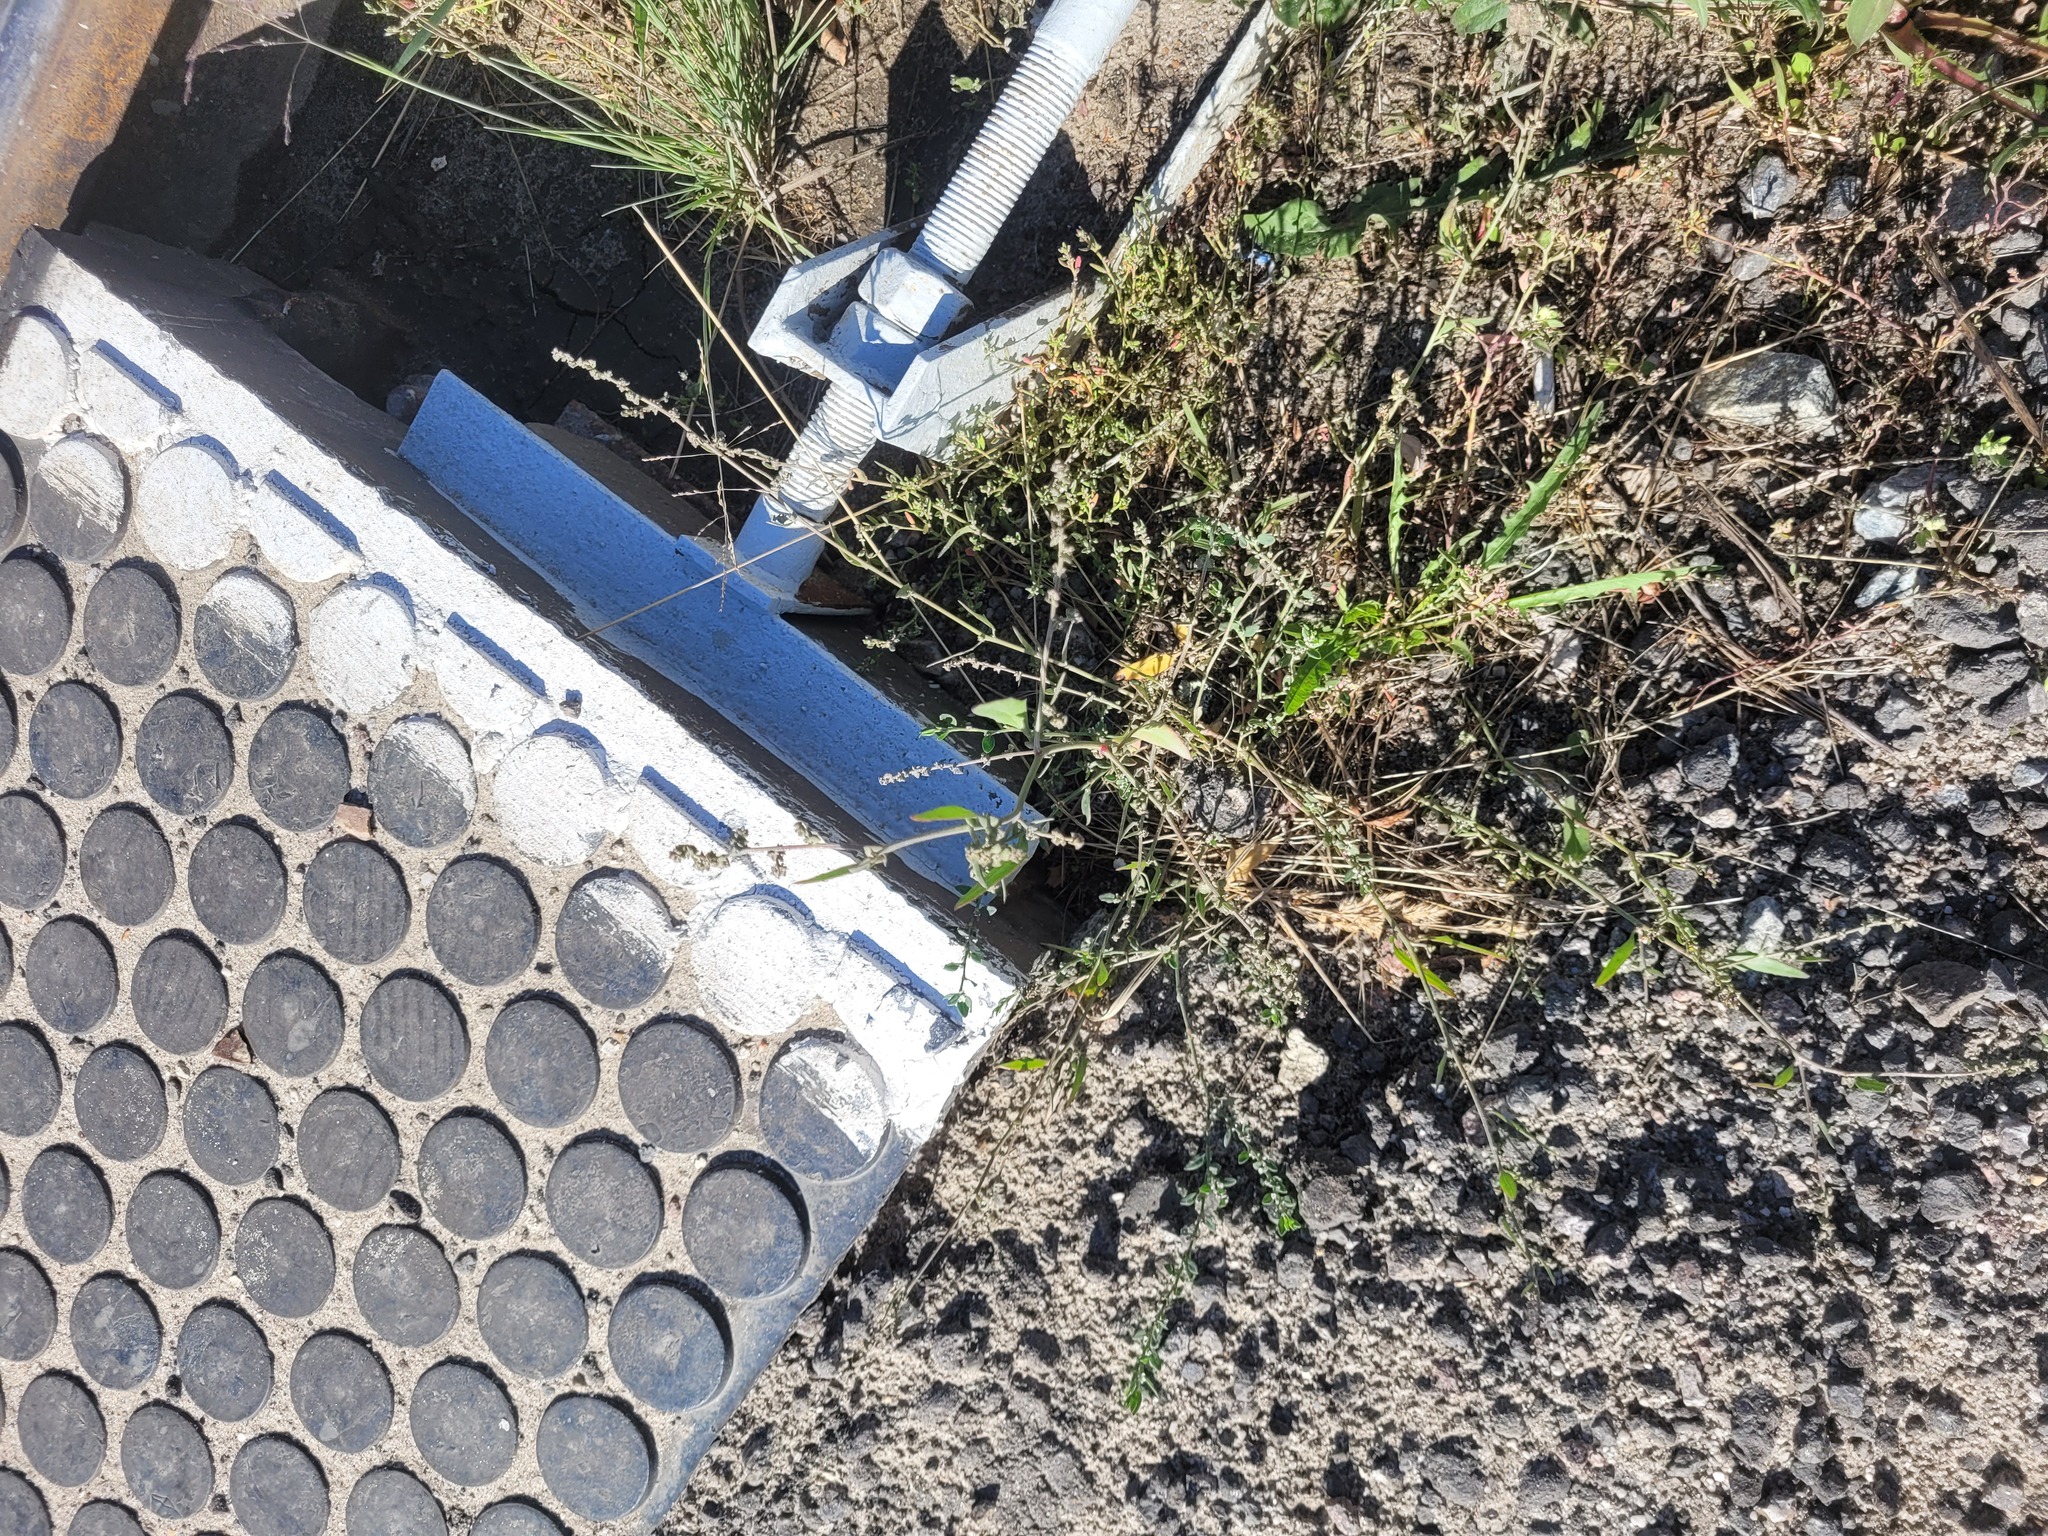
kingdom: Plantae
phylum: Tracheophyta
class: Magnoliopsida
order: Caryophyllales
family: Amaranthaceae
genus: Atriplex
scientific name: Atriplex patula
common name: Common orache
